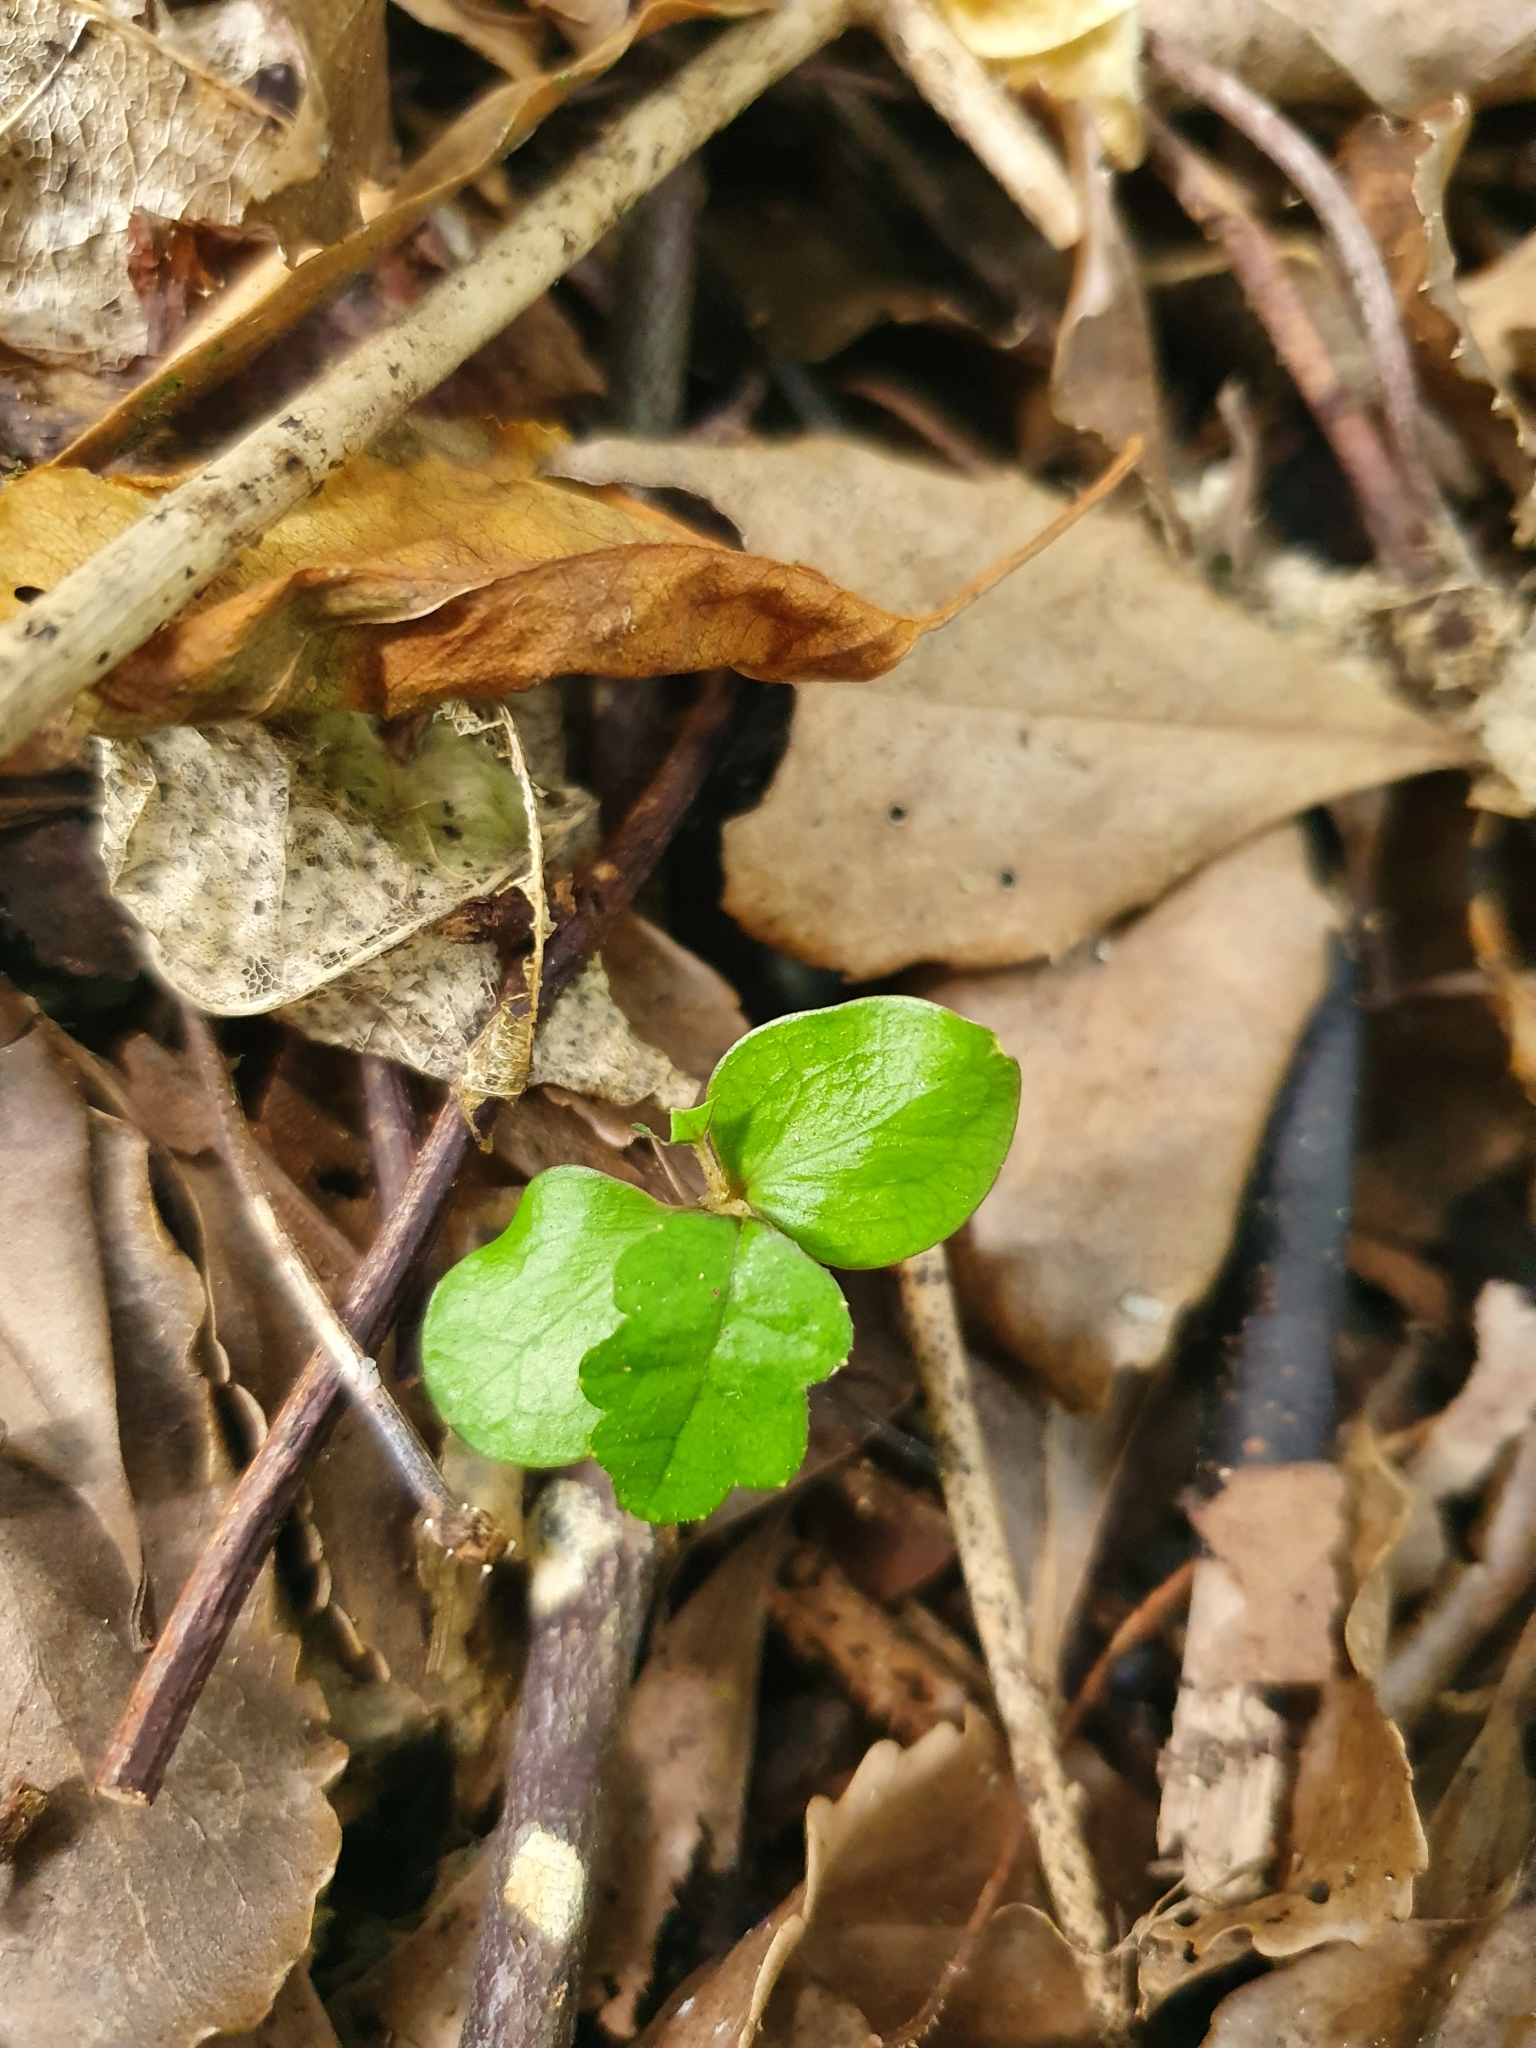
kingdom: Plantae
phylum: Tracheophyta
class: Magnoliopsida
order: Apiales
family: Pennantiaceae
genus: Pennantia
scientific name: Pennantia corymbosa
